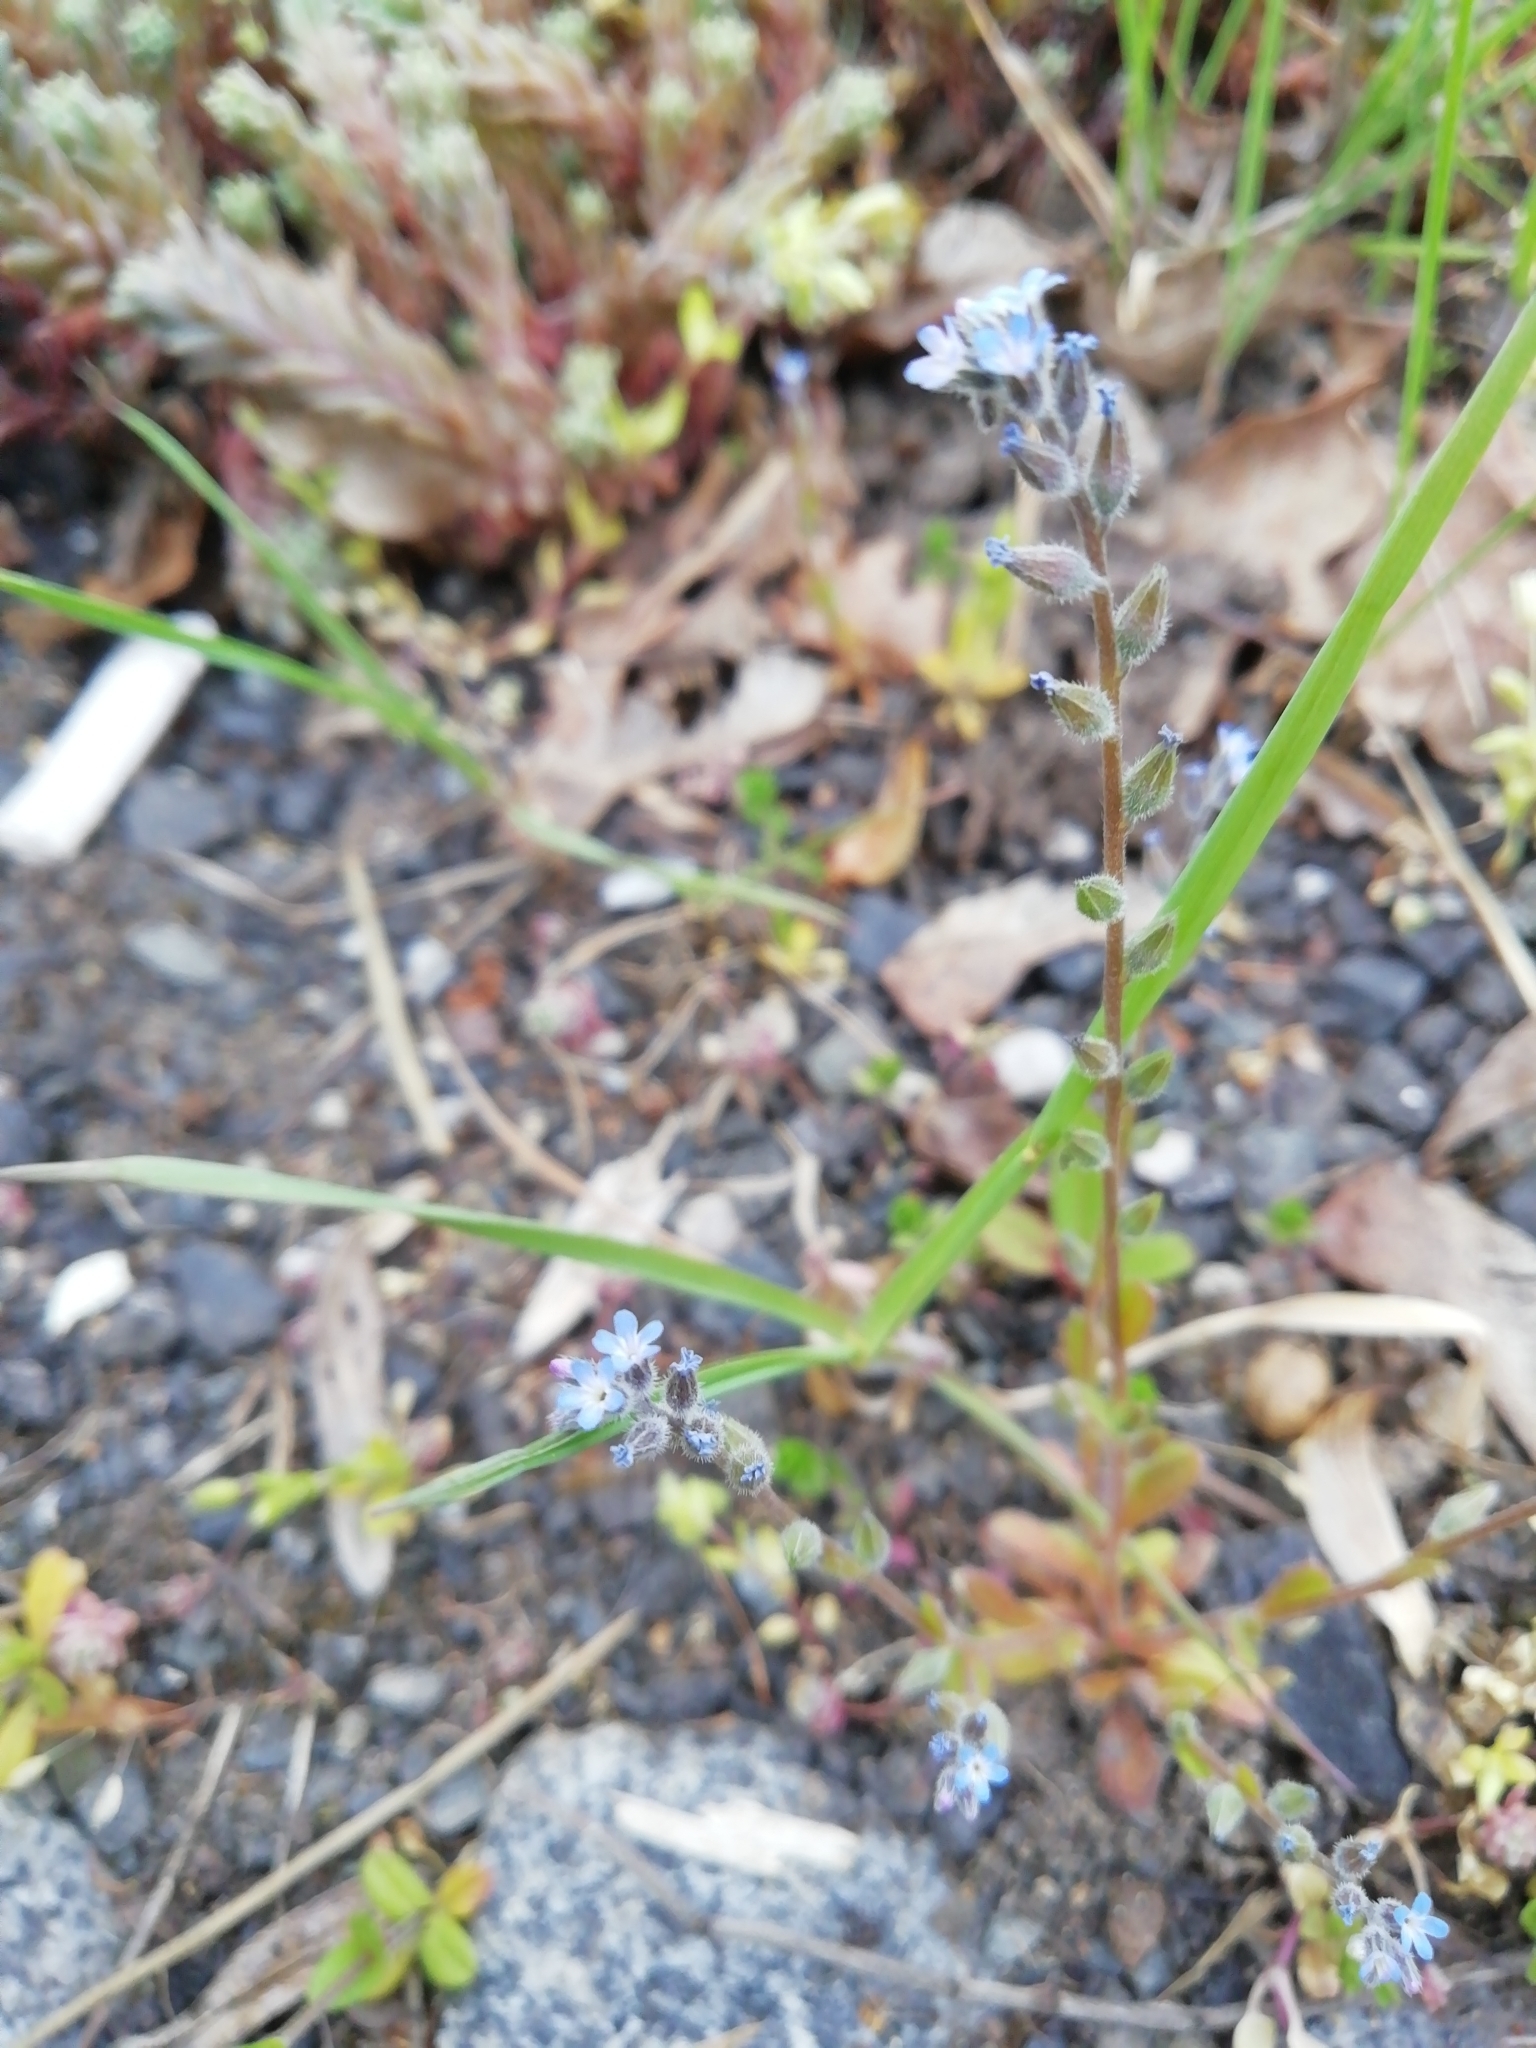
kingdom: Plantae
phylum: Tracheophyta
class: Magnoliopsida
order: Boraginales
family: Boraginaceae
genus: Myosotis
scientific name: Myosotis stricta
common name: Strict forget-me-not
